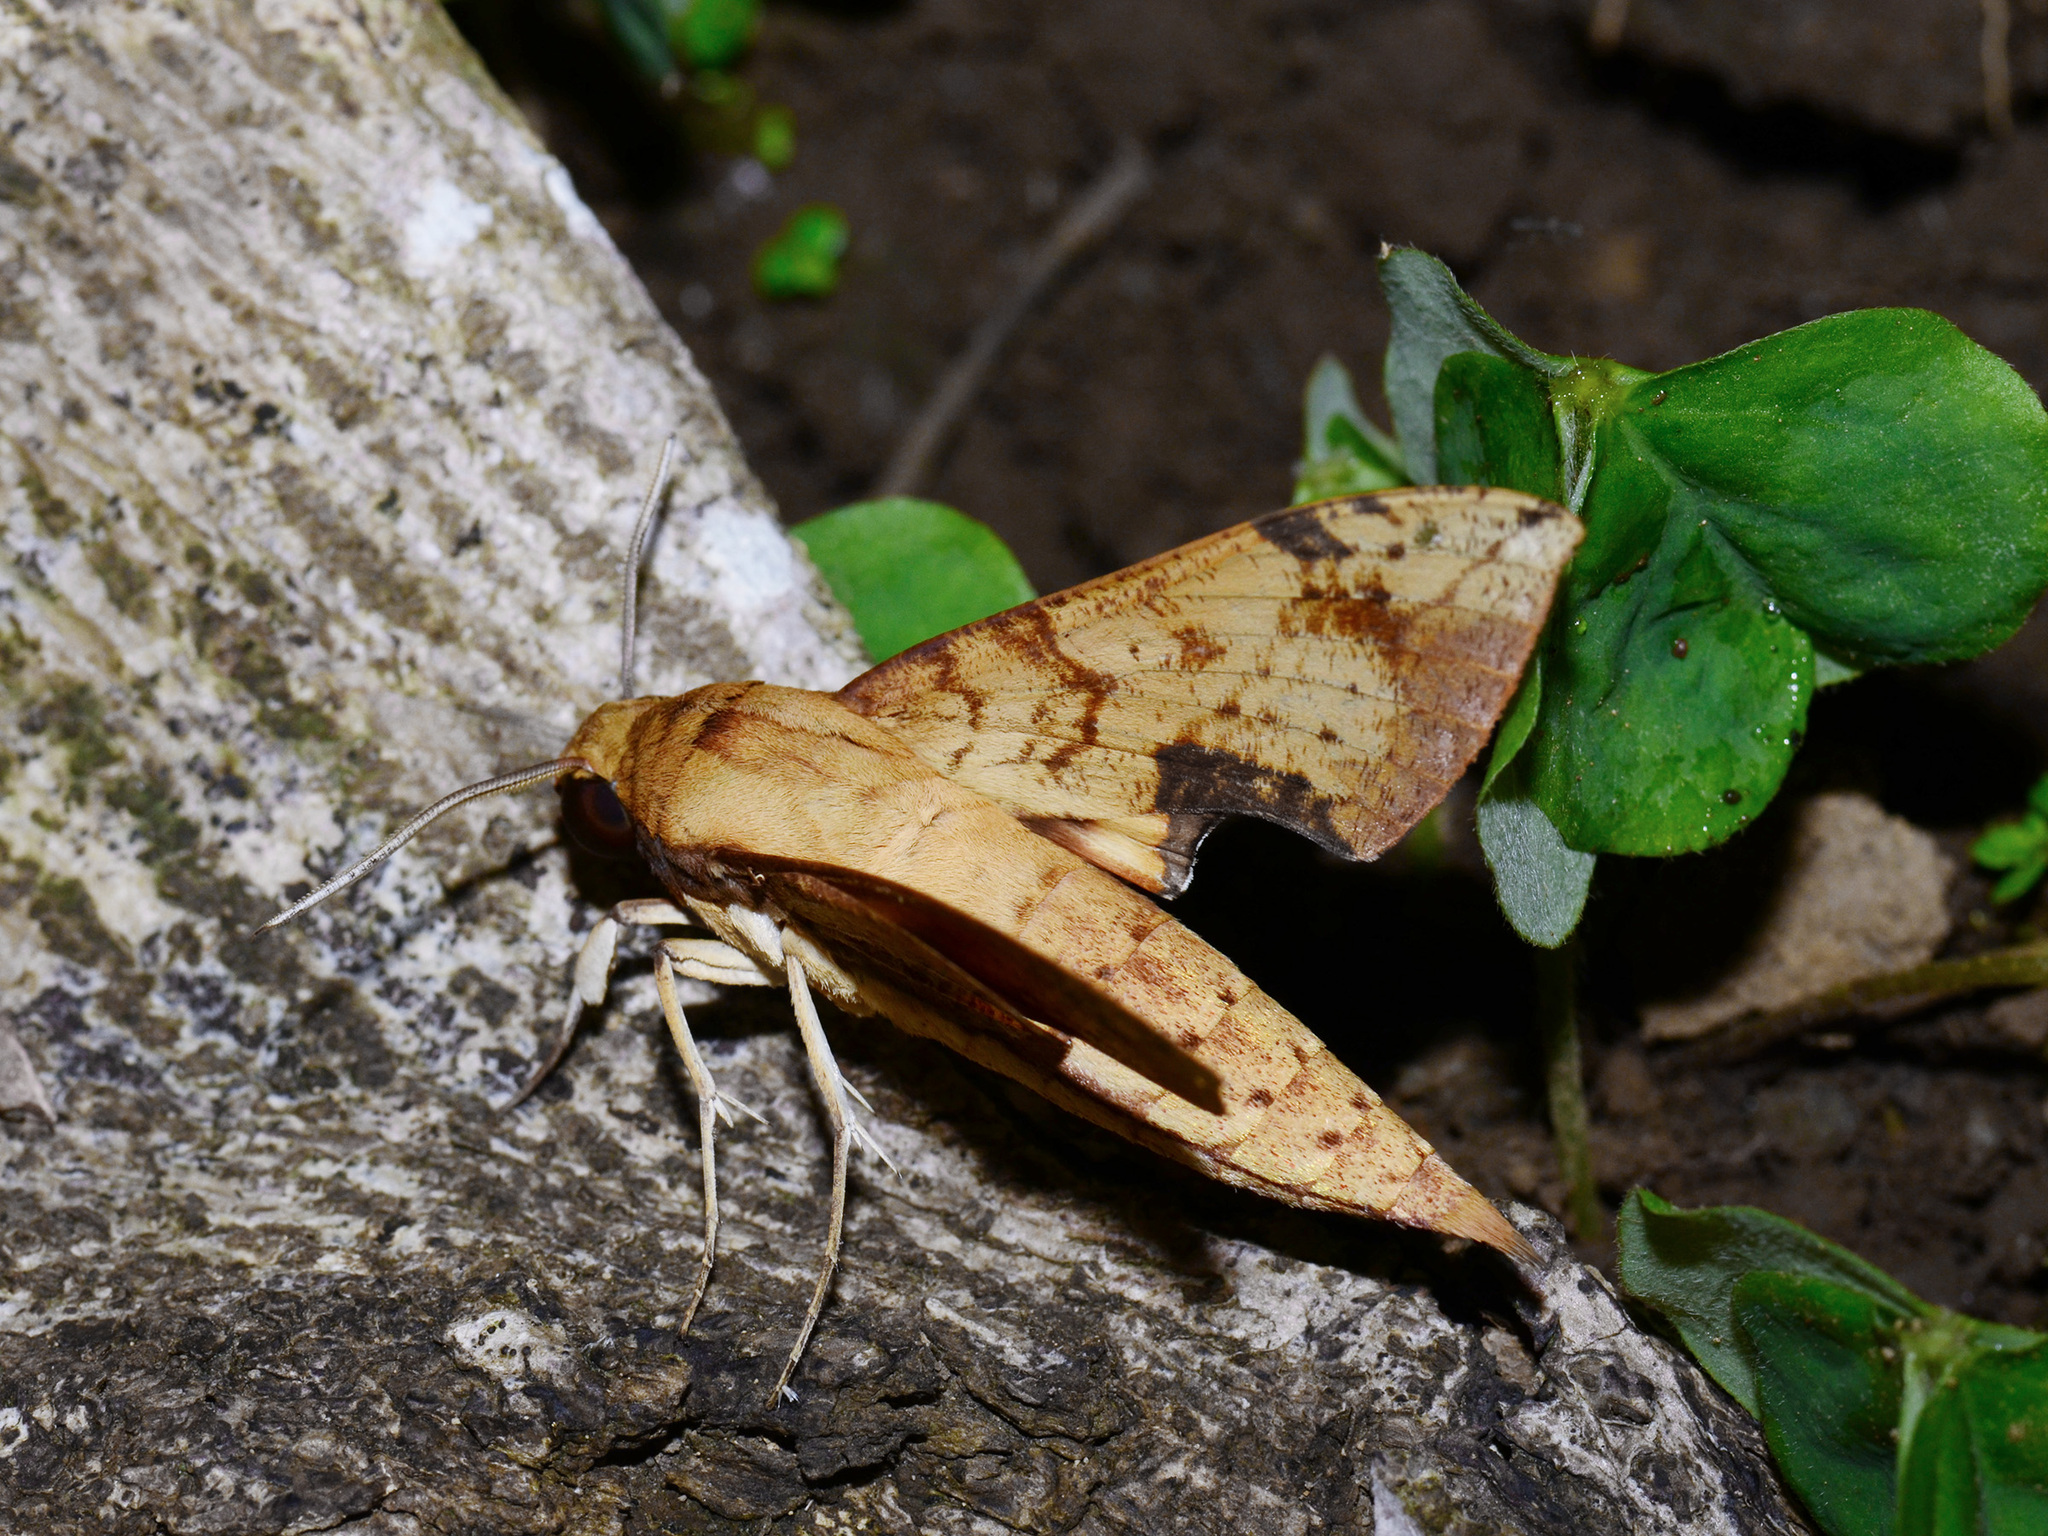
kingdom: Animalia
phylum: Arthropoda
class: Insecta
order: Lepidoptera
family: Sphingidae
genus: Cechenena
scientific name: Cechenena transpacifica
